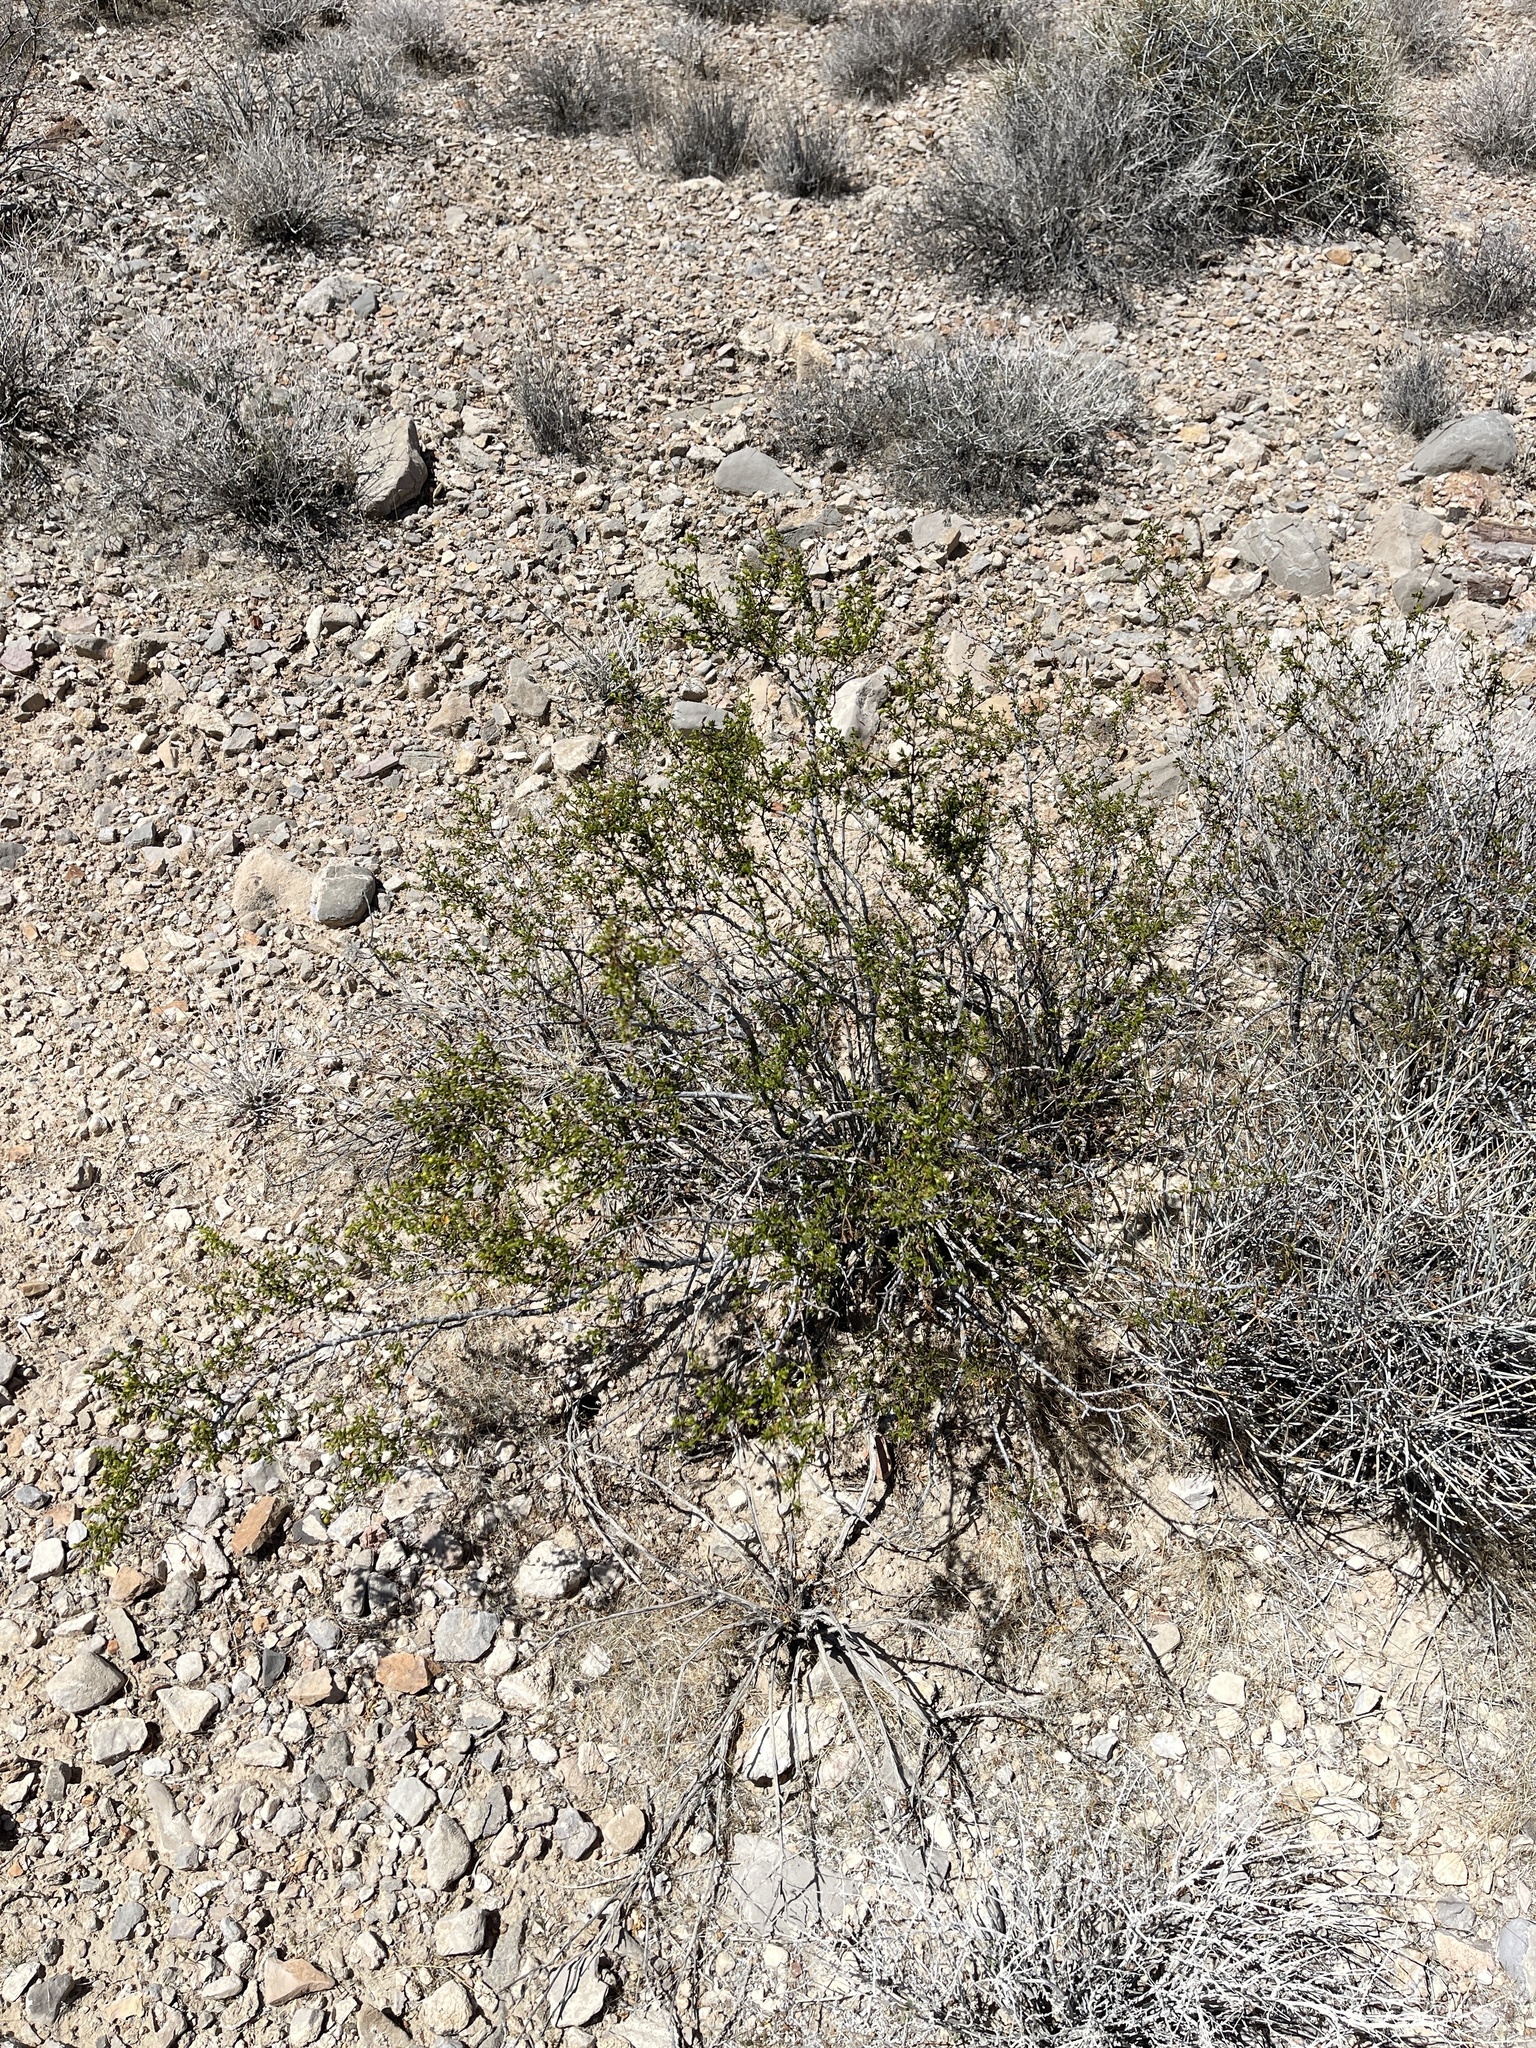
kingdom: Plantae
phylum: Tracheophyta
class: Magnoliopsida
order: Zygophyllales
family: Zygophyllaceae
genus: Larrea
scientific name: Larrea tridentata
